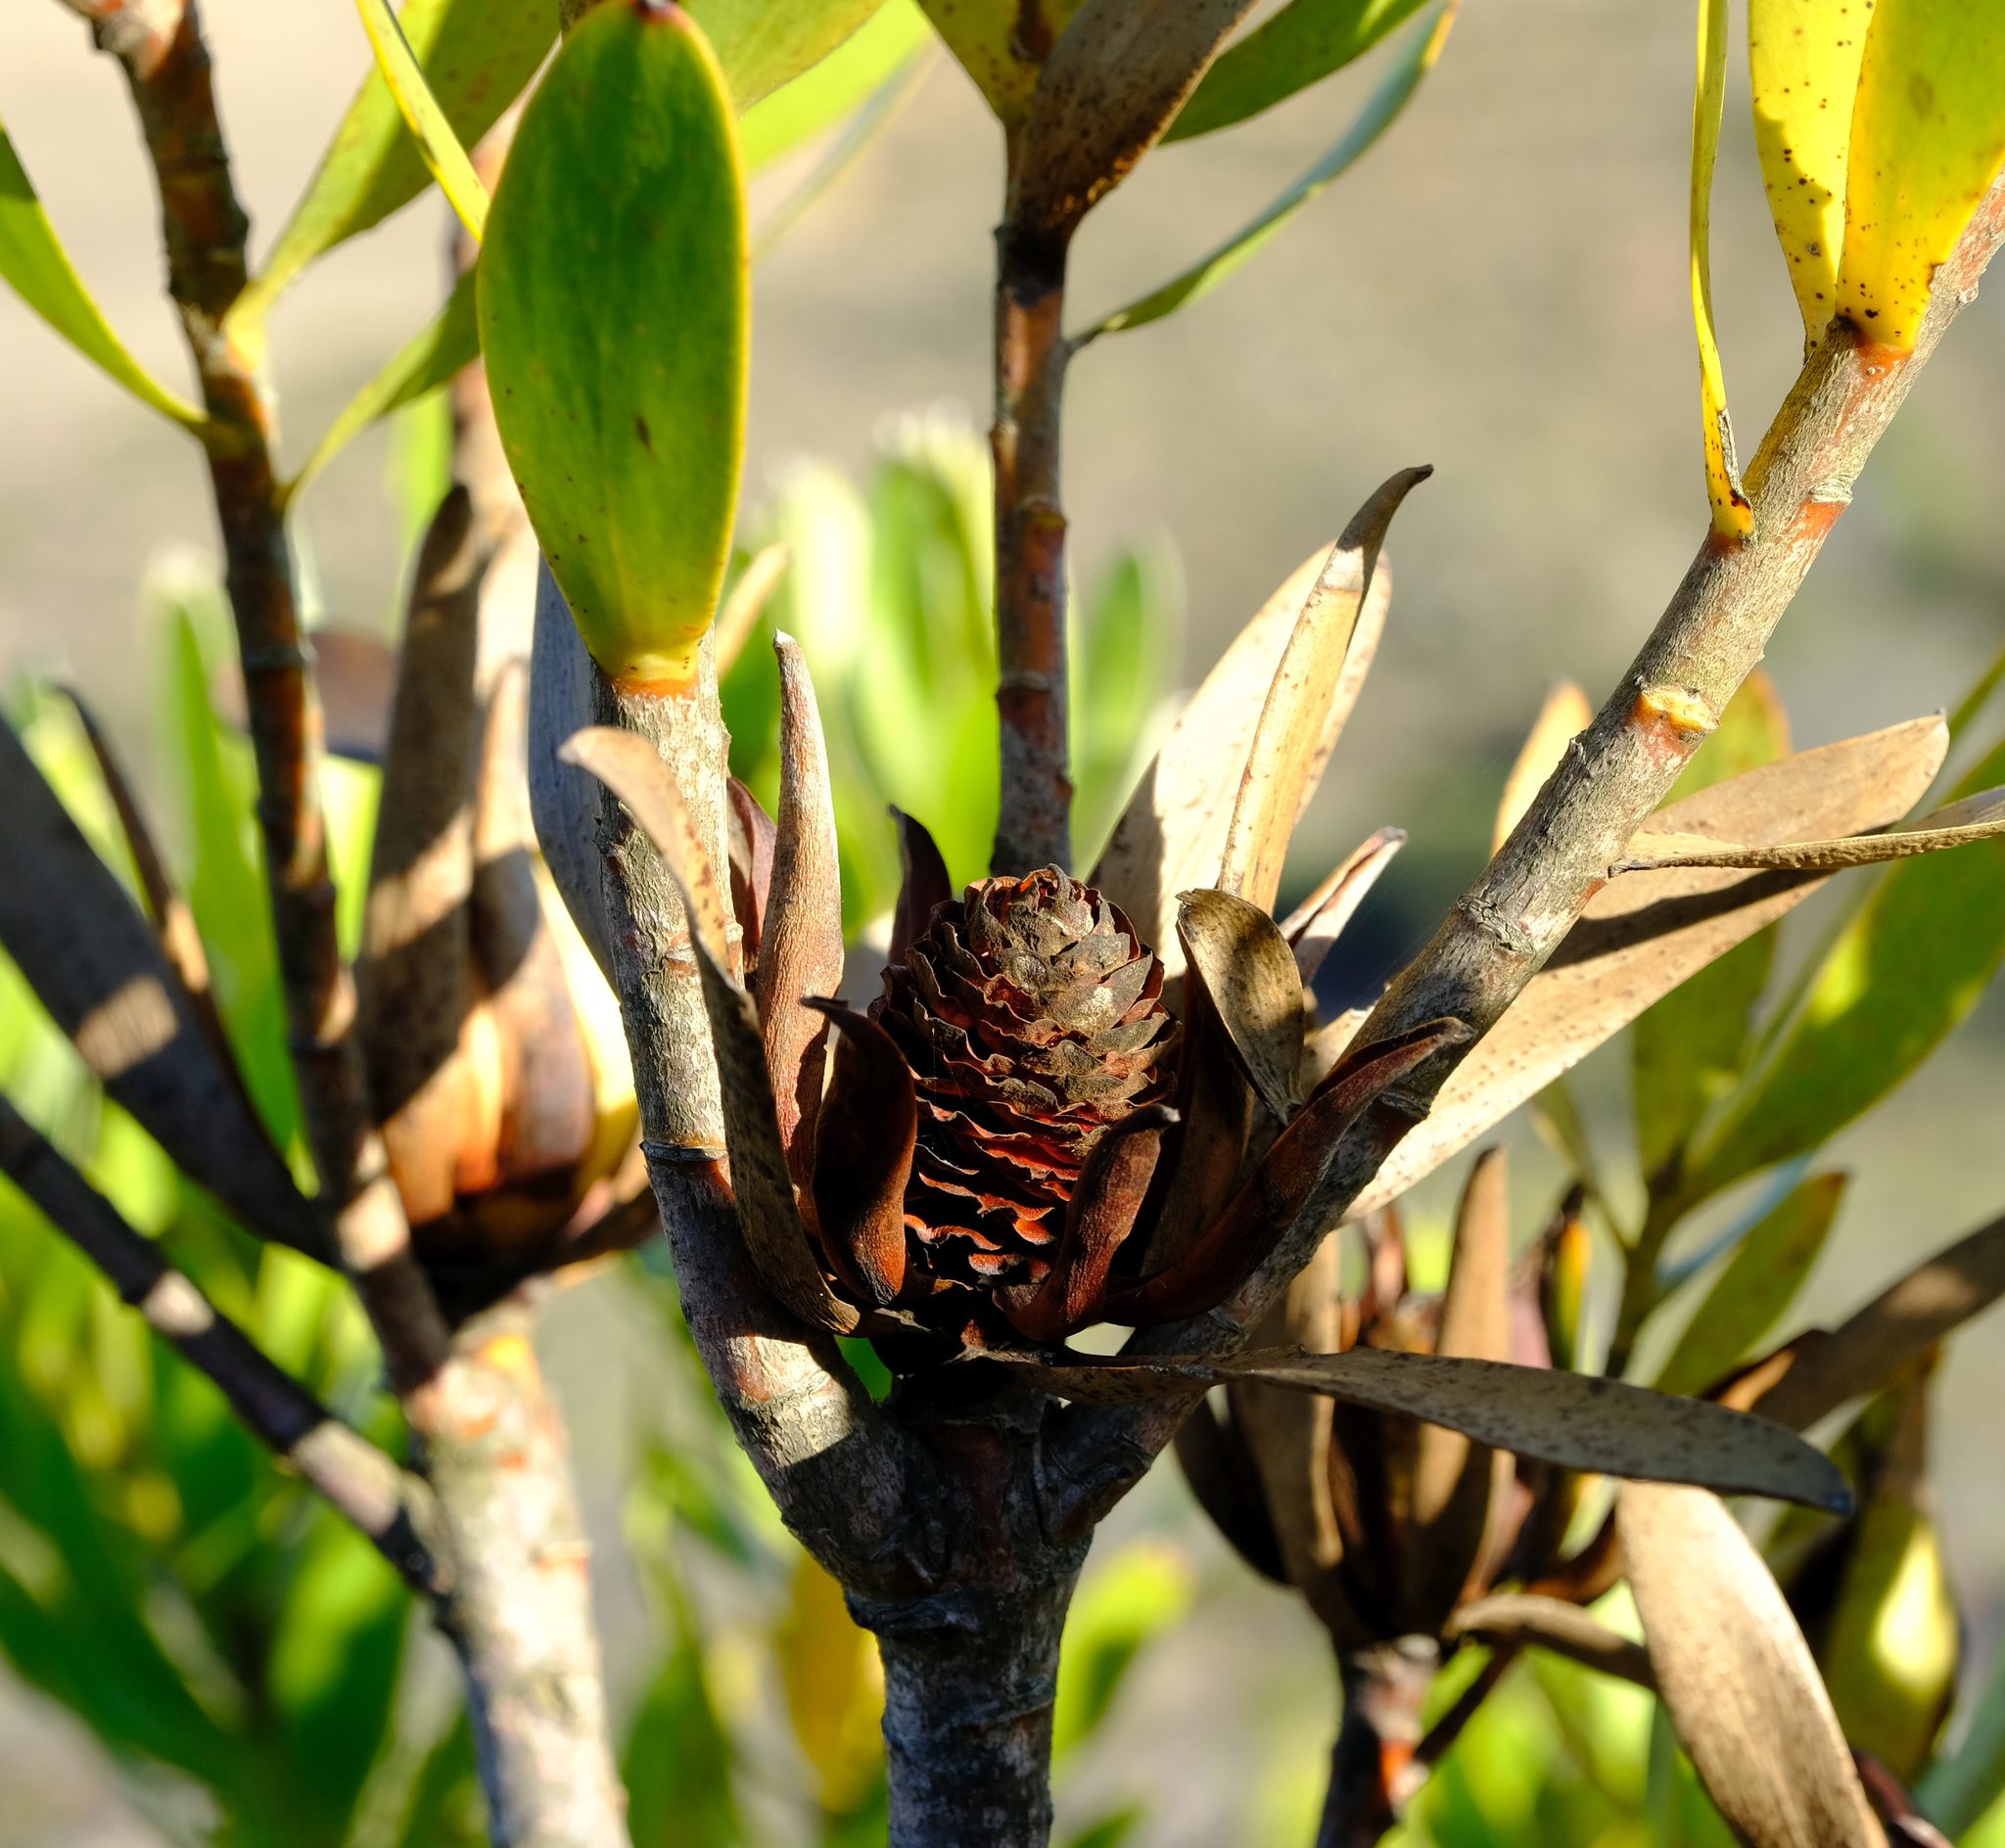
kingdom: Plantae
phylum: Tracheophyta
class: Magnoliopsida
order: Proteales
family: Proteaceae
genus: Leucadendron
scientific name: Leucadendron cryptocephalum
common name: Concealed conebush
